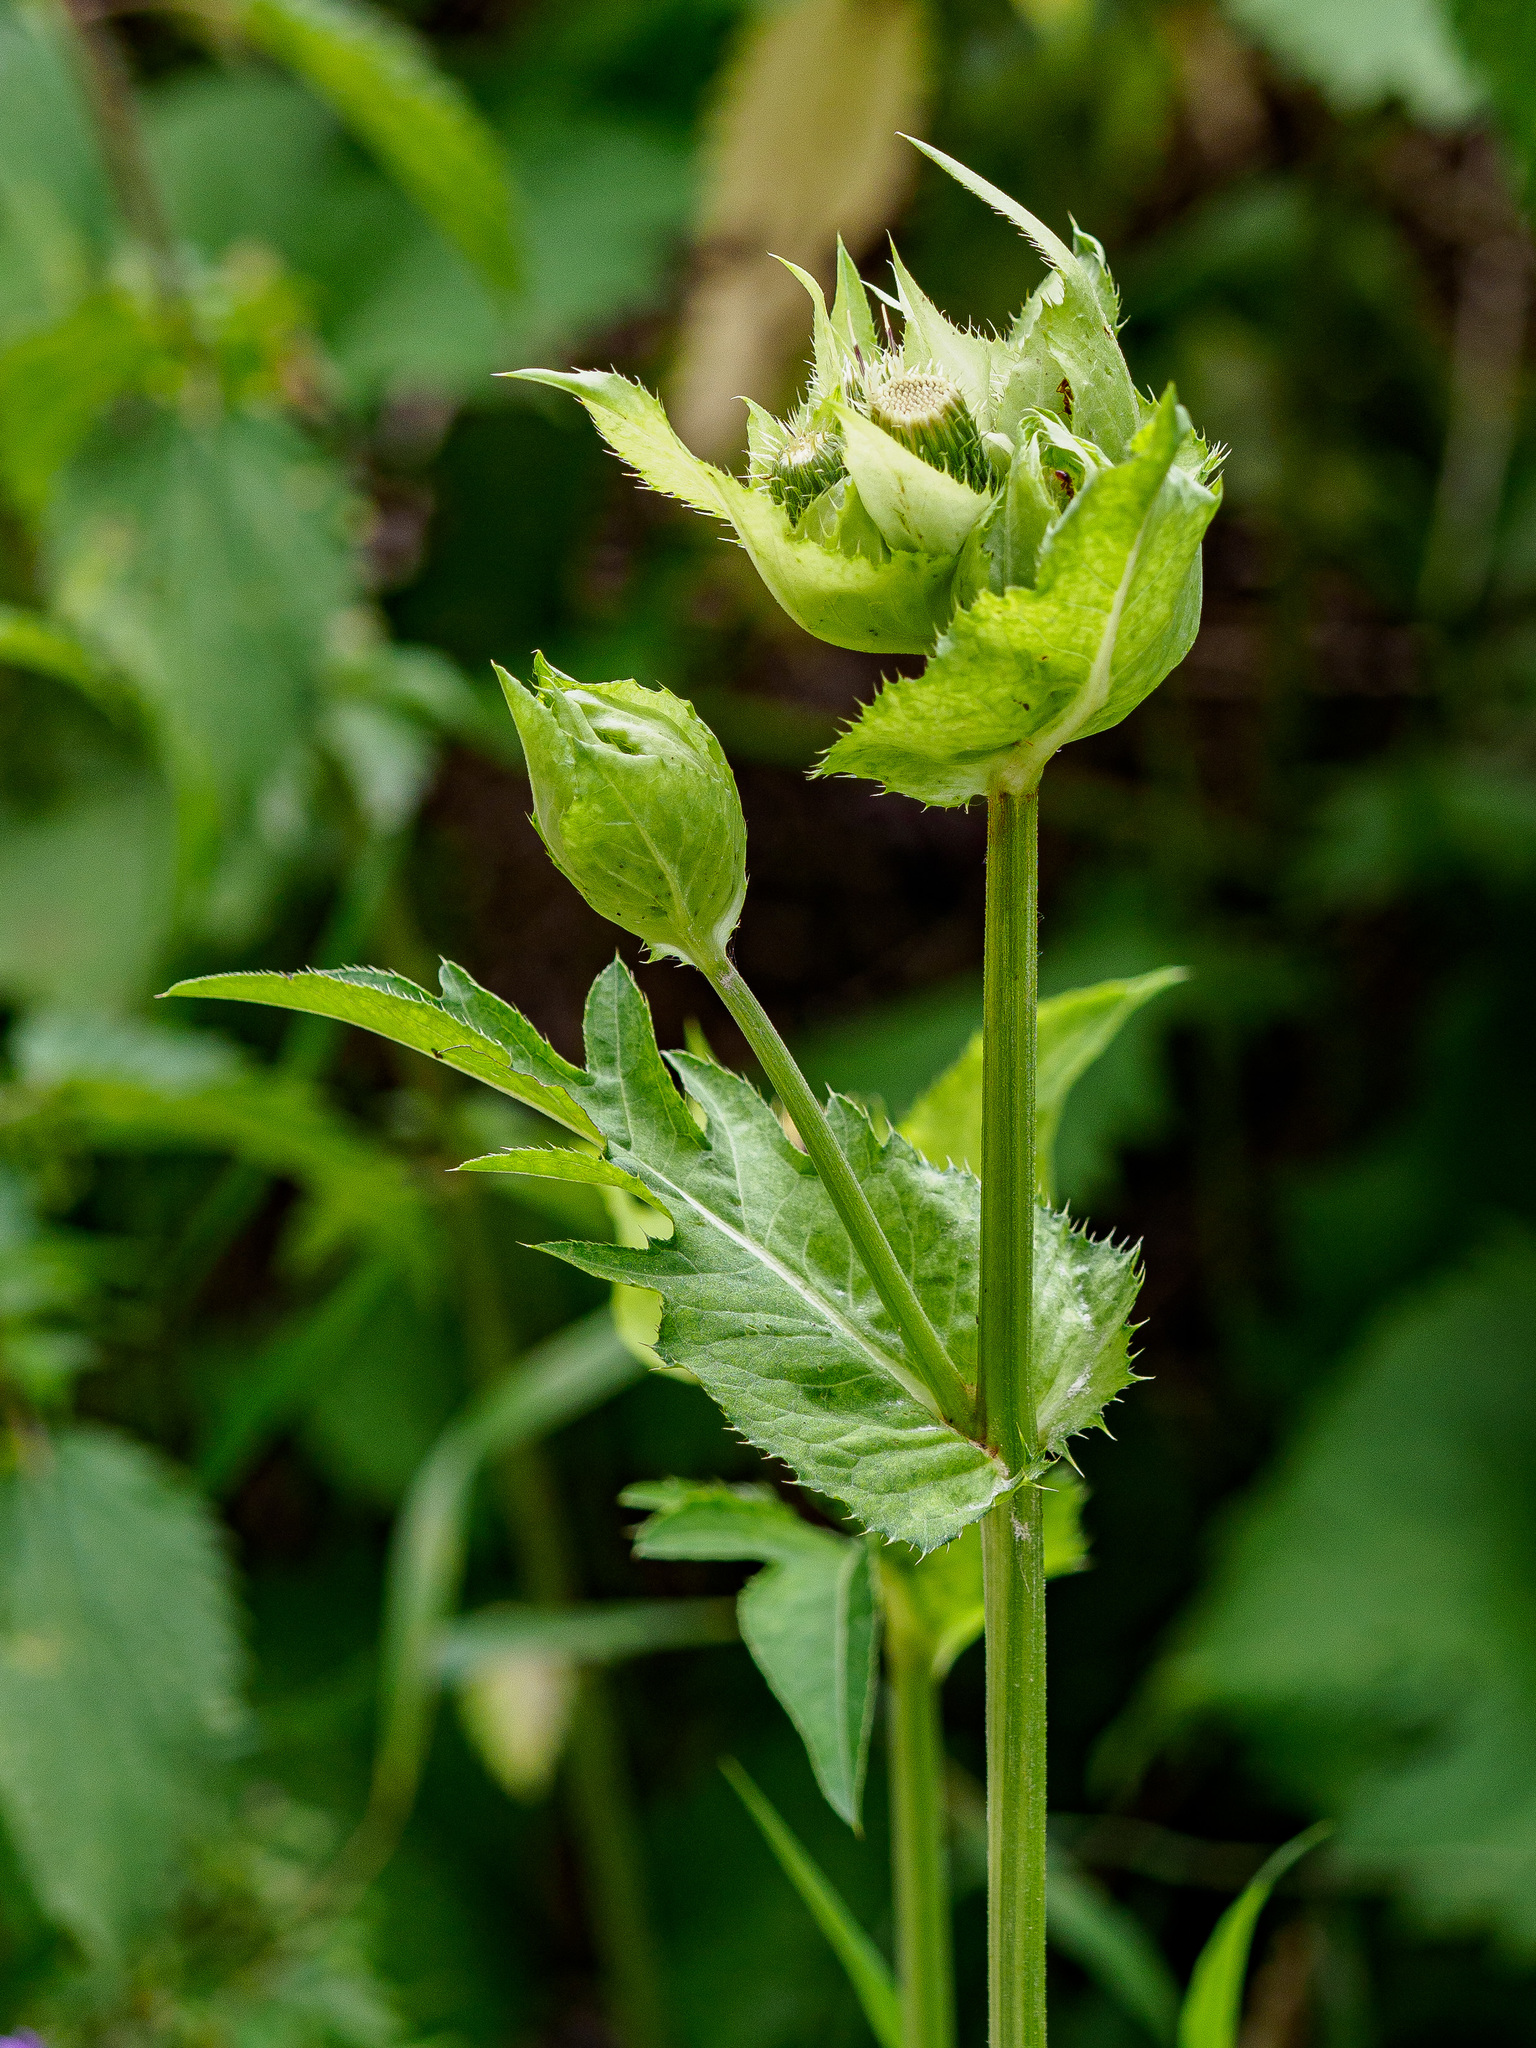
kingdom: Plantae
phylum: Tracheophyta
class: Magnoliopsida
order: Asterales
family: Asteraceae
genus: Cirsium
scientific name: Cirsium oleraceum
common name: Cabbage thistle
